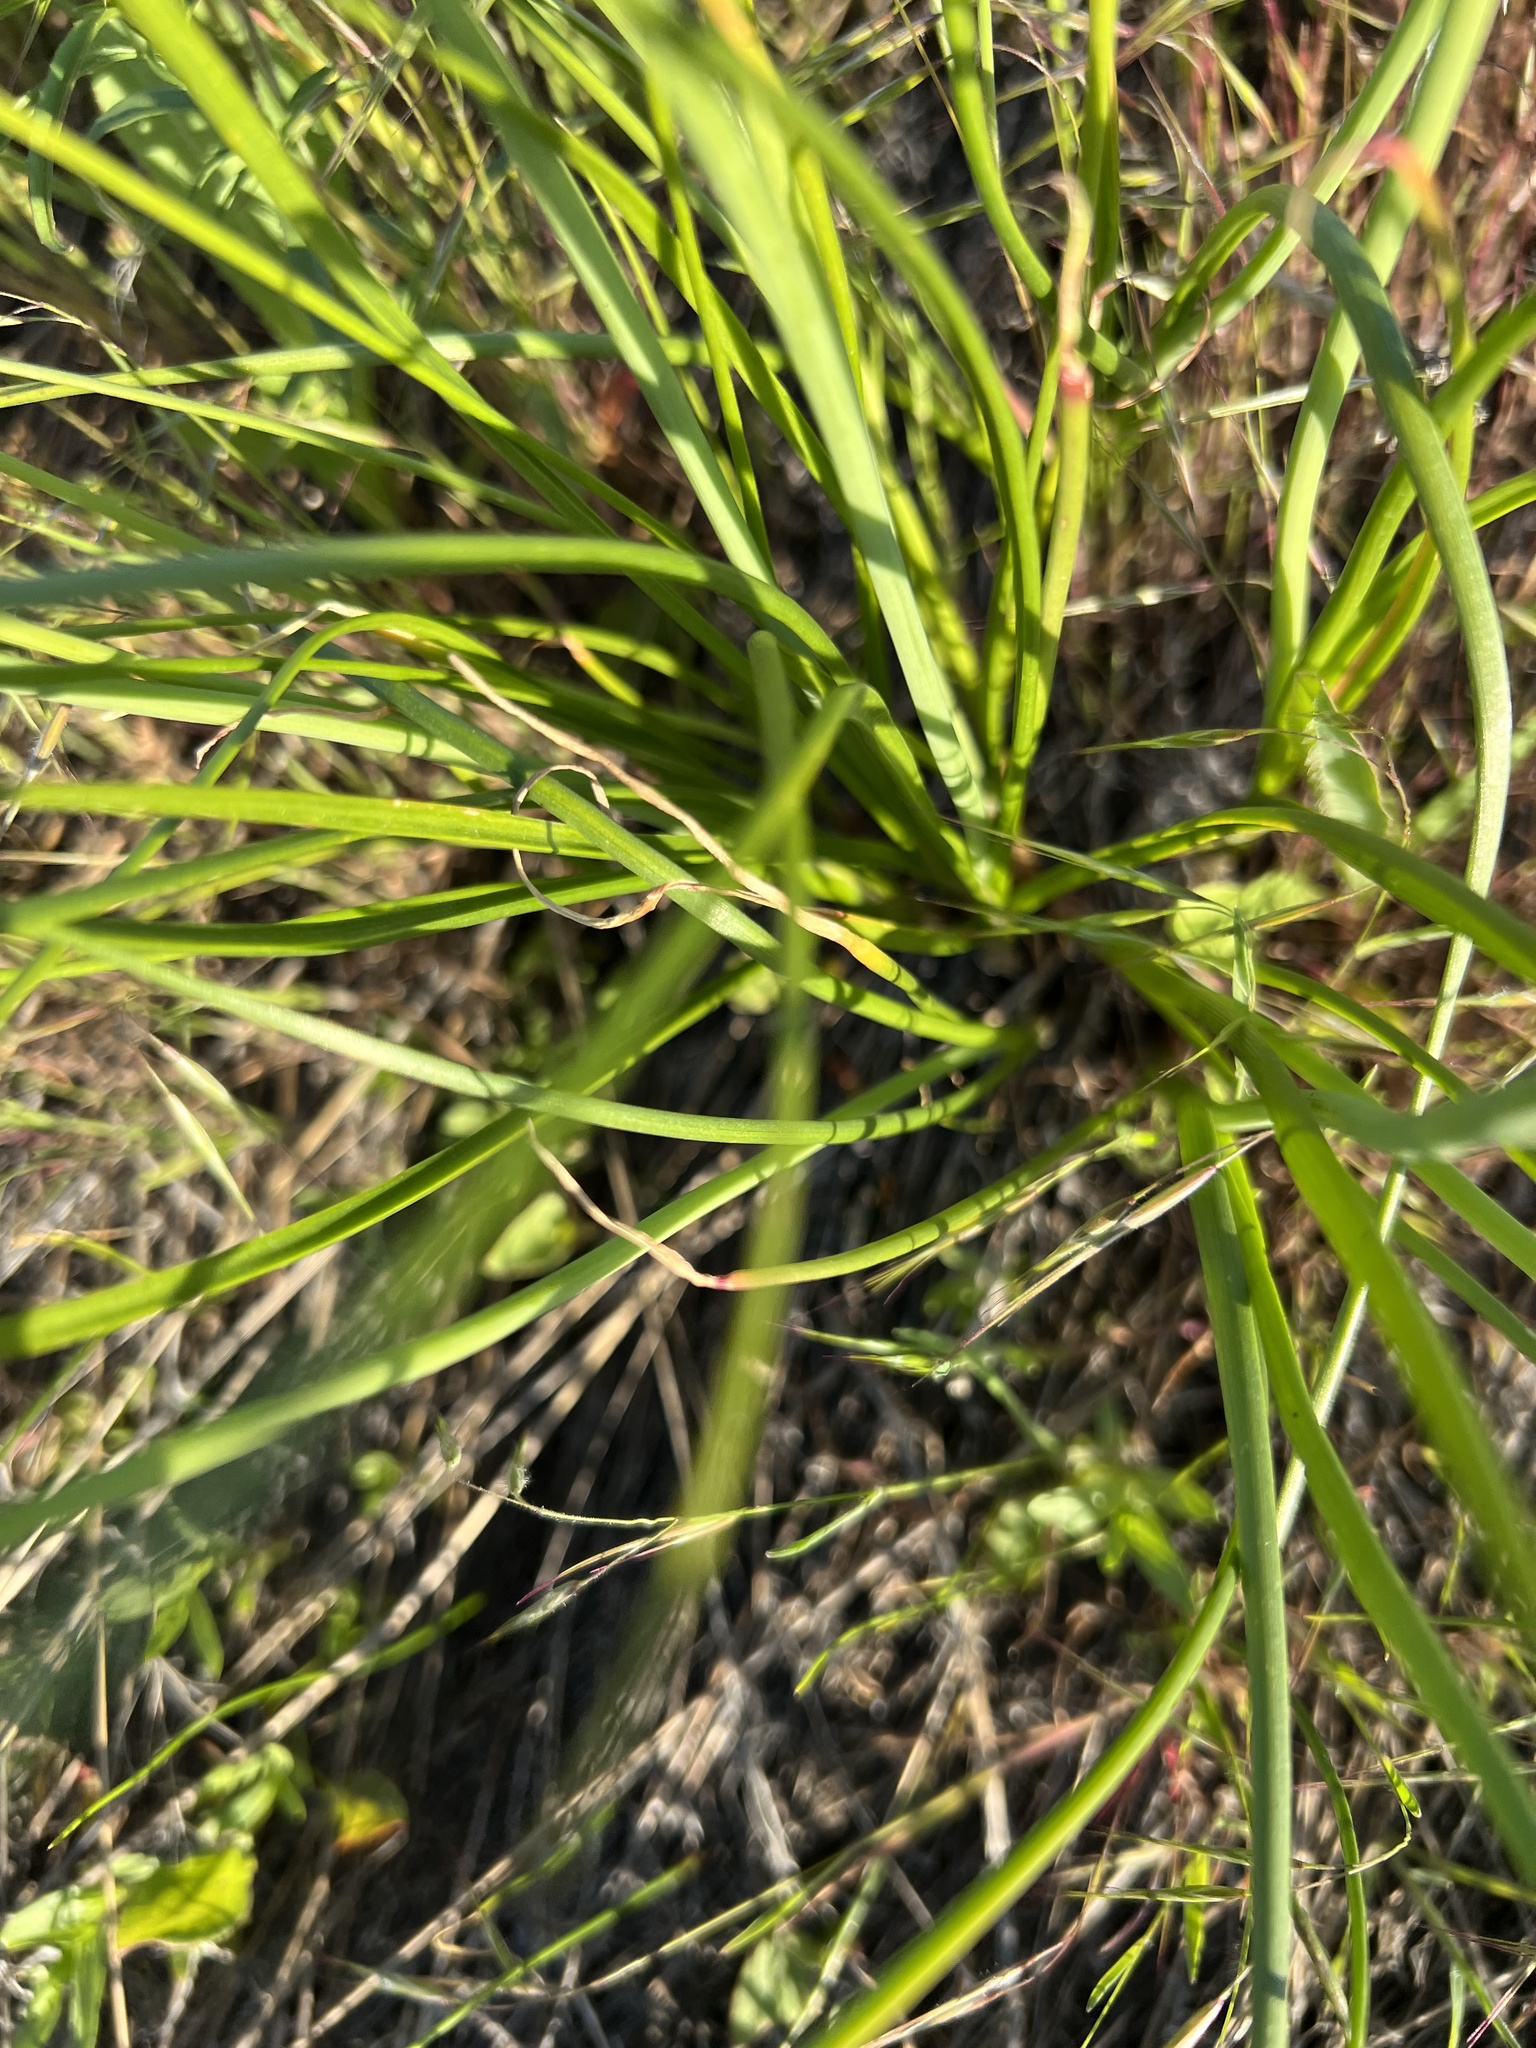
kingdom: Plantae
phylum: Tracheophyta
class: Liliopsida
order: Asparagales
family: Amaryllidaceae
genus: Allium
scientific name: Allium geyeri
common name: Geyer's onion
